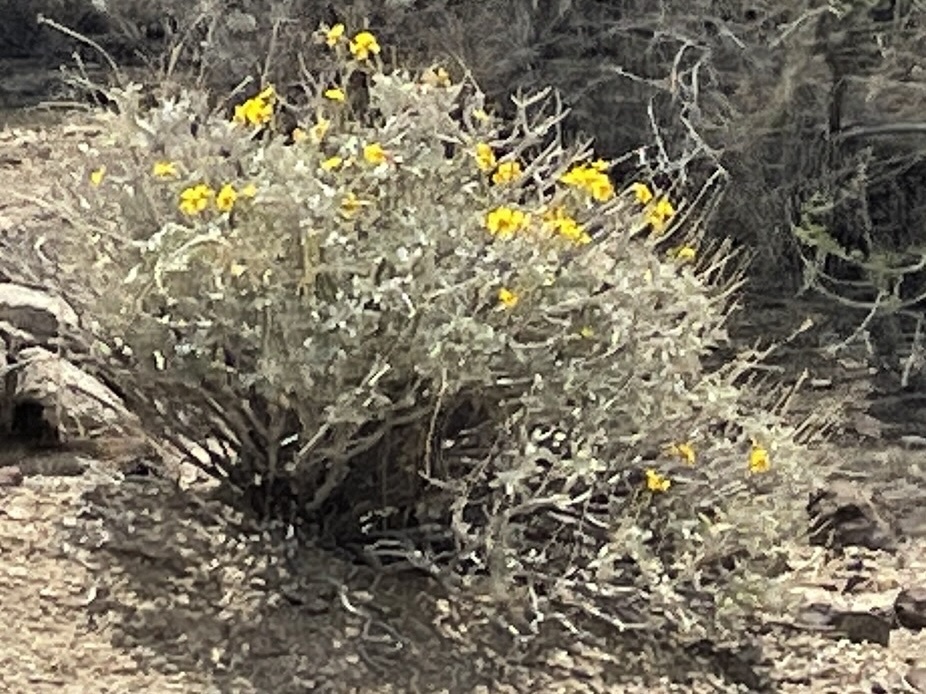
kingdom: Plantae
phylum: Tracheophyta
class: Magnoliopsida
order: Asterales
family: Asteraceae
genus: Encelia
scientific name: Encelia farinosa
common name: Brittlebush
